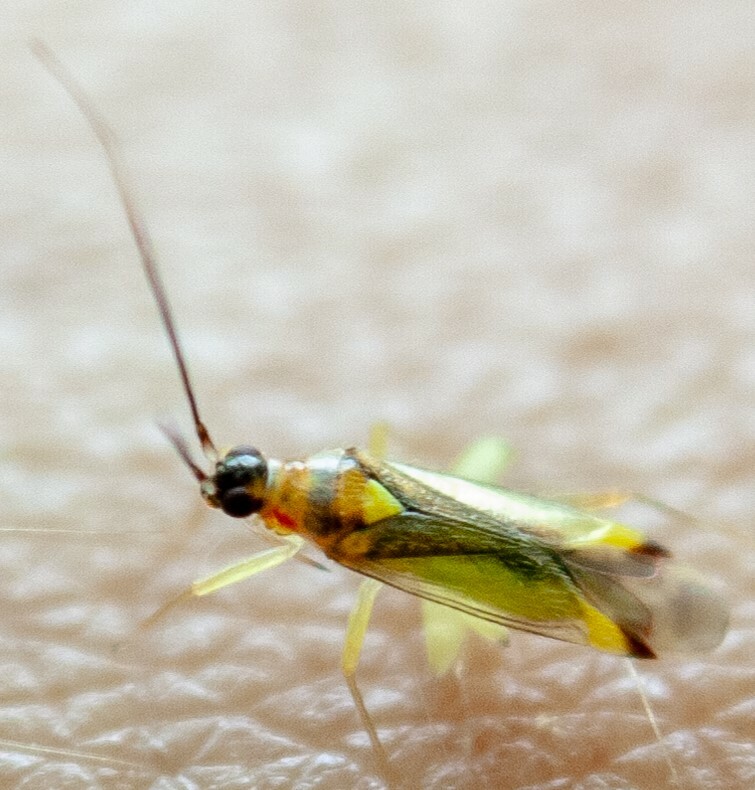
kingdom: Animalia
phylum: Arthropoda
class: Insecta
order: Hemiptera
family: Miridae
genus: Campyloneura
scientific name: Campyloneura virgula
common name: Predatory bug
